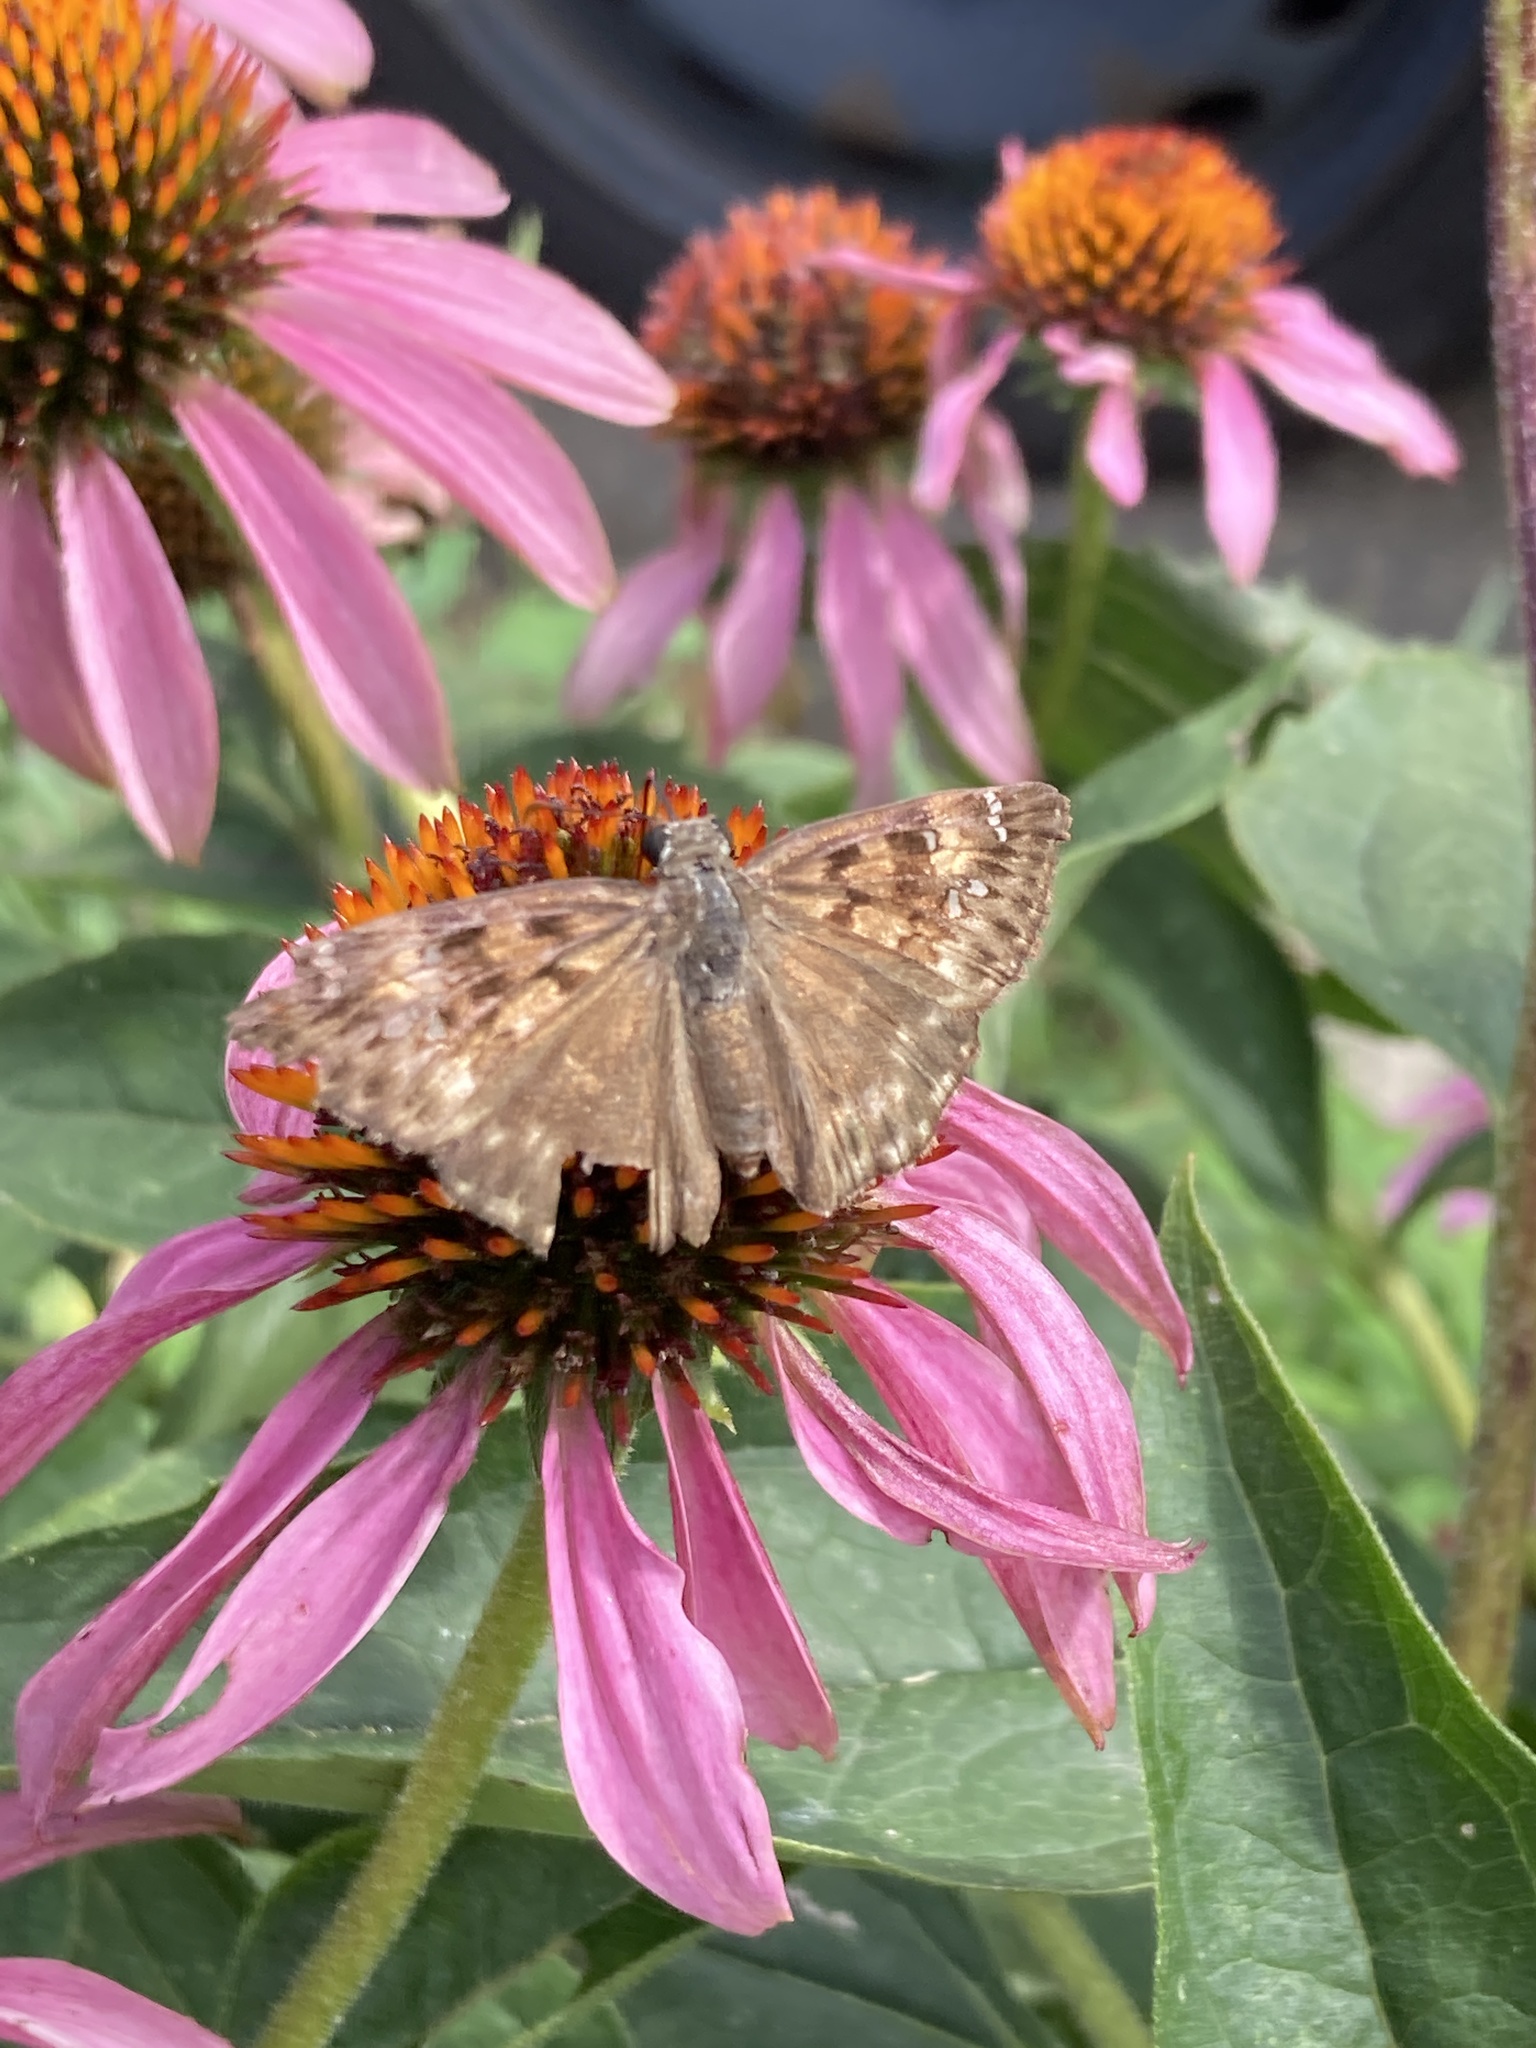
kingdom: Animalia
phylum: Arthropoda
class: Insecta
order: Lepidoptera
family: Hesperiidae
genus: Erynnis
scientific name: Erynnis horatius
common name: Horace's duskywing
